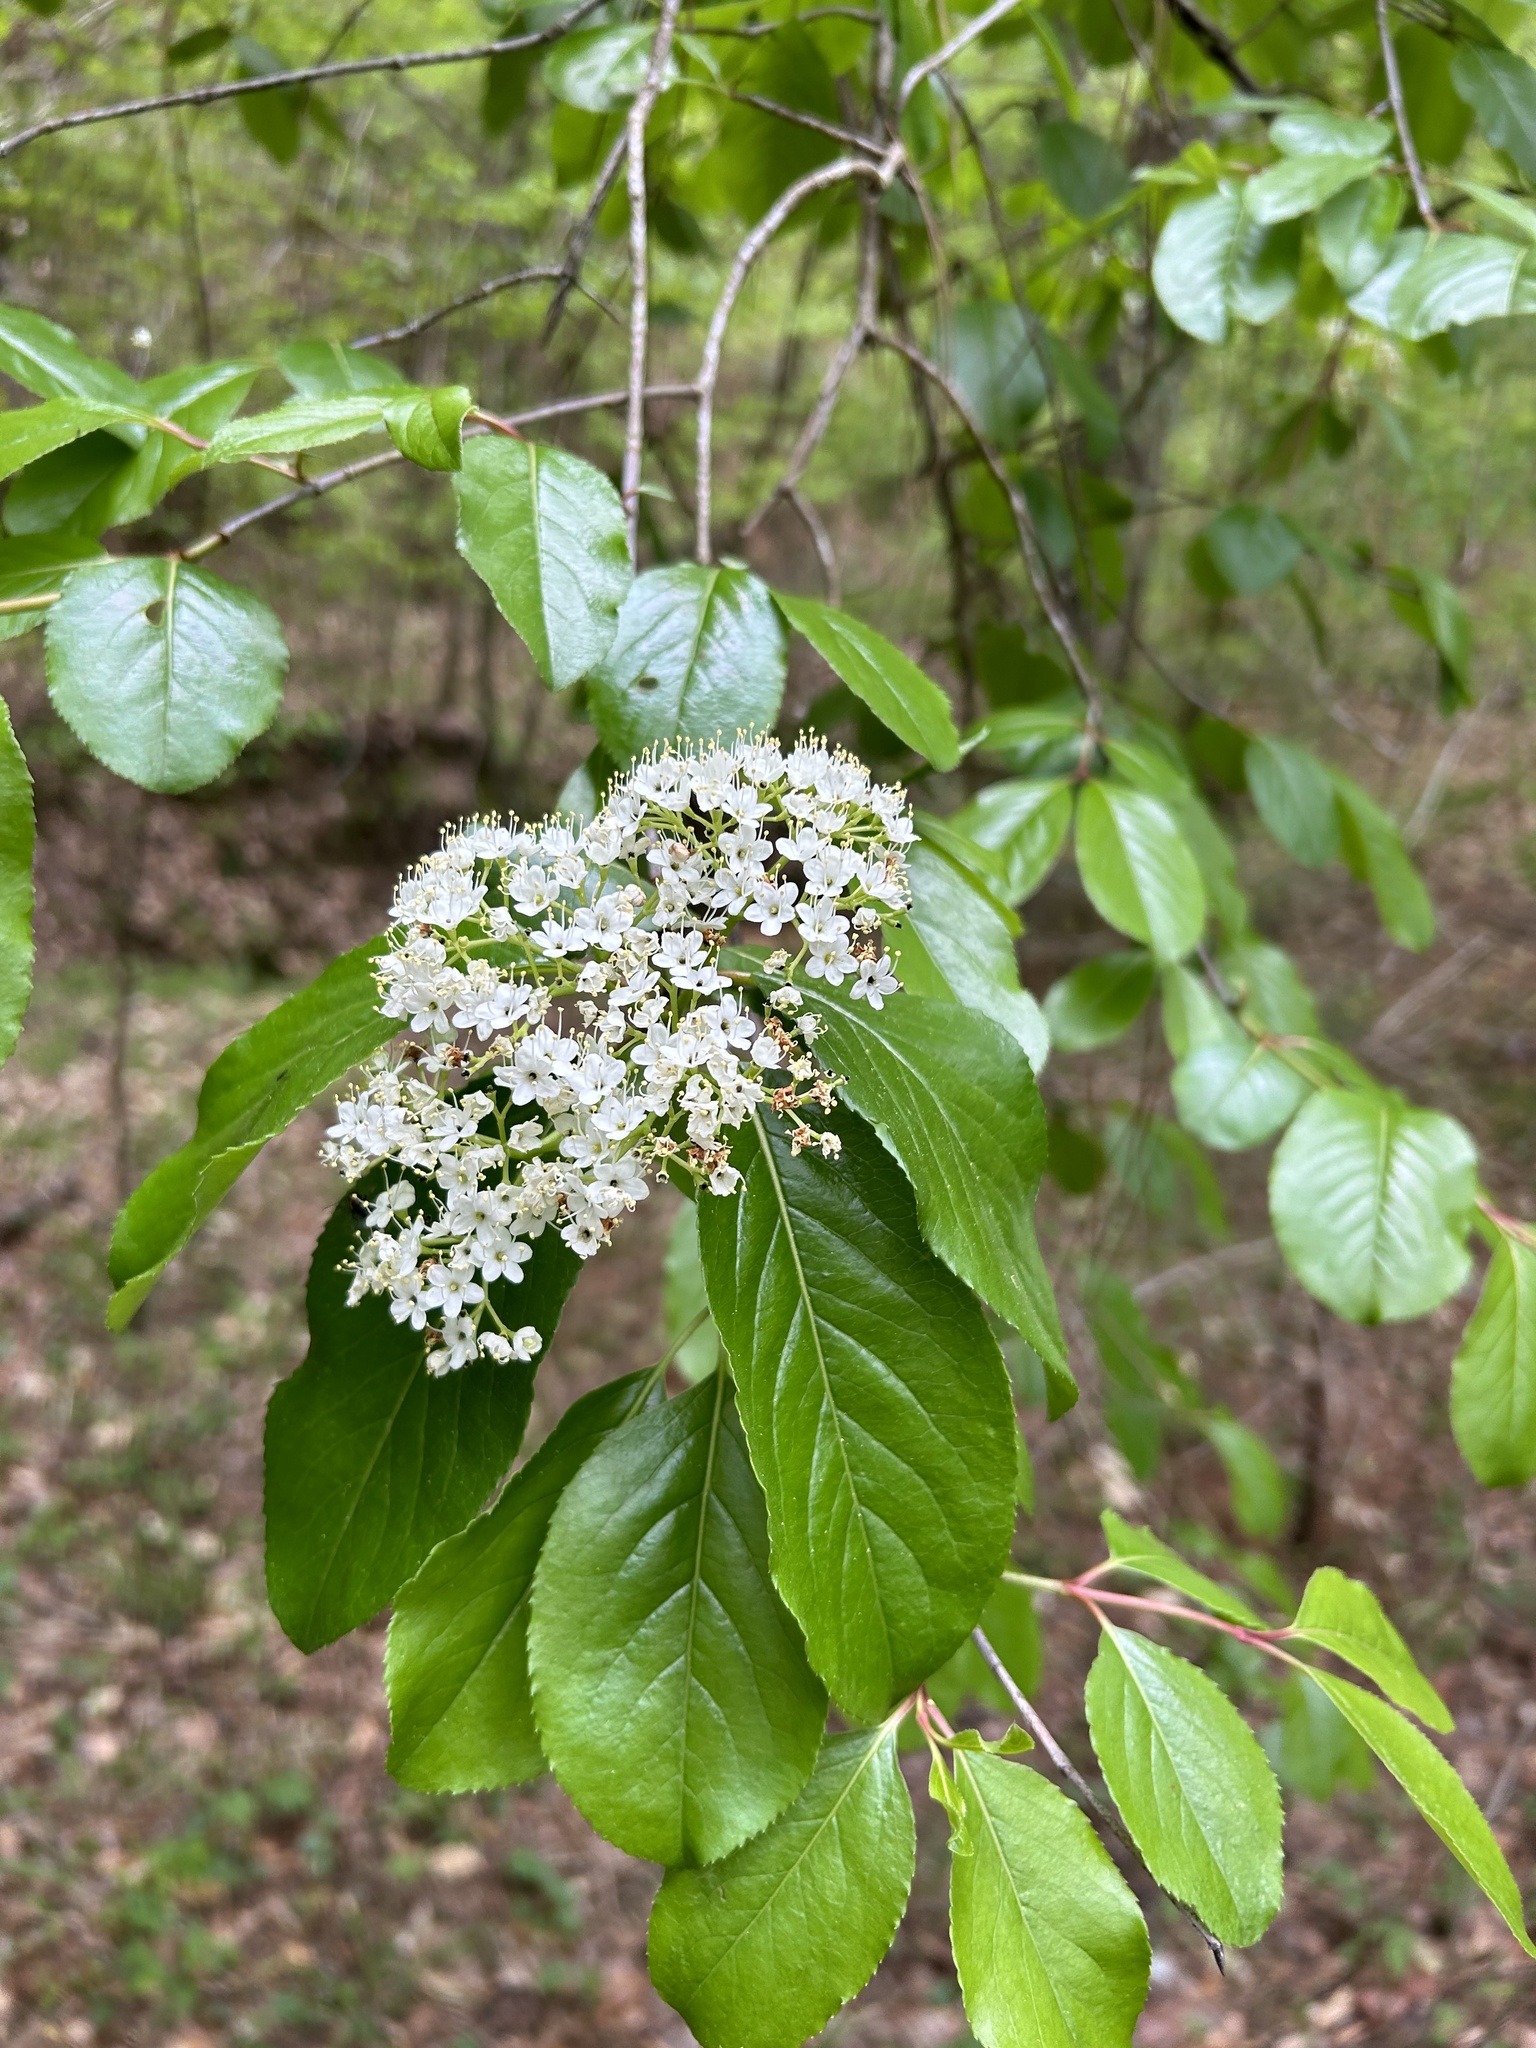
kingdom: Plantae
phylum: Tracheophyta
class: Magnoliopsida
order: Dipsacales
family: Viburnaceae
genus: Viburnum
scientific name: Viburnum rufidulum
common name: Blue haw
